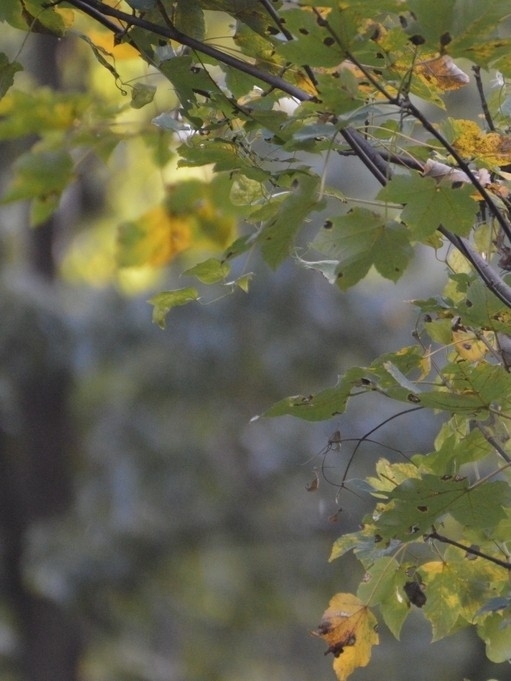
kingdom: Plantae
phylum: Tracheophyta
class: Magnoliopsida
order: Sapindales
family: Sapindaceae
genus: Acer
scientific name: Acer pseudoplatanus
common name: Sycamore
